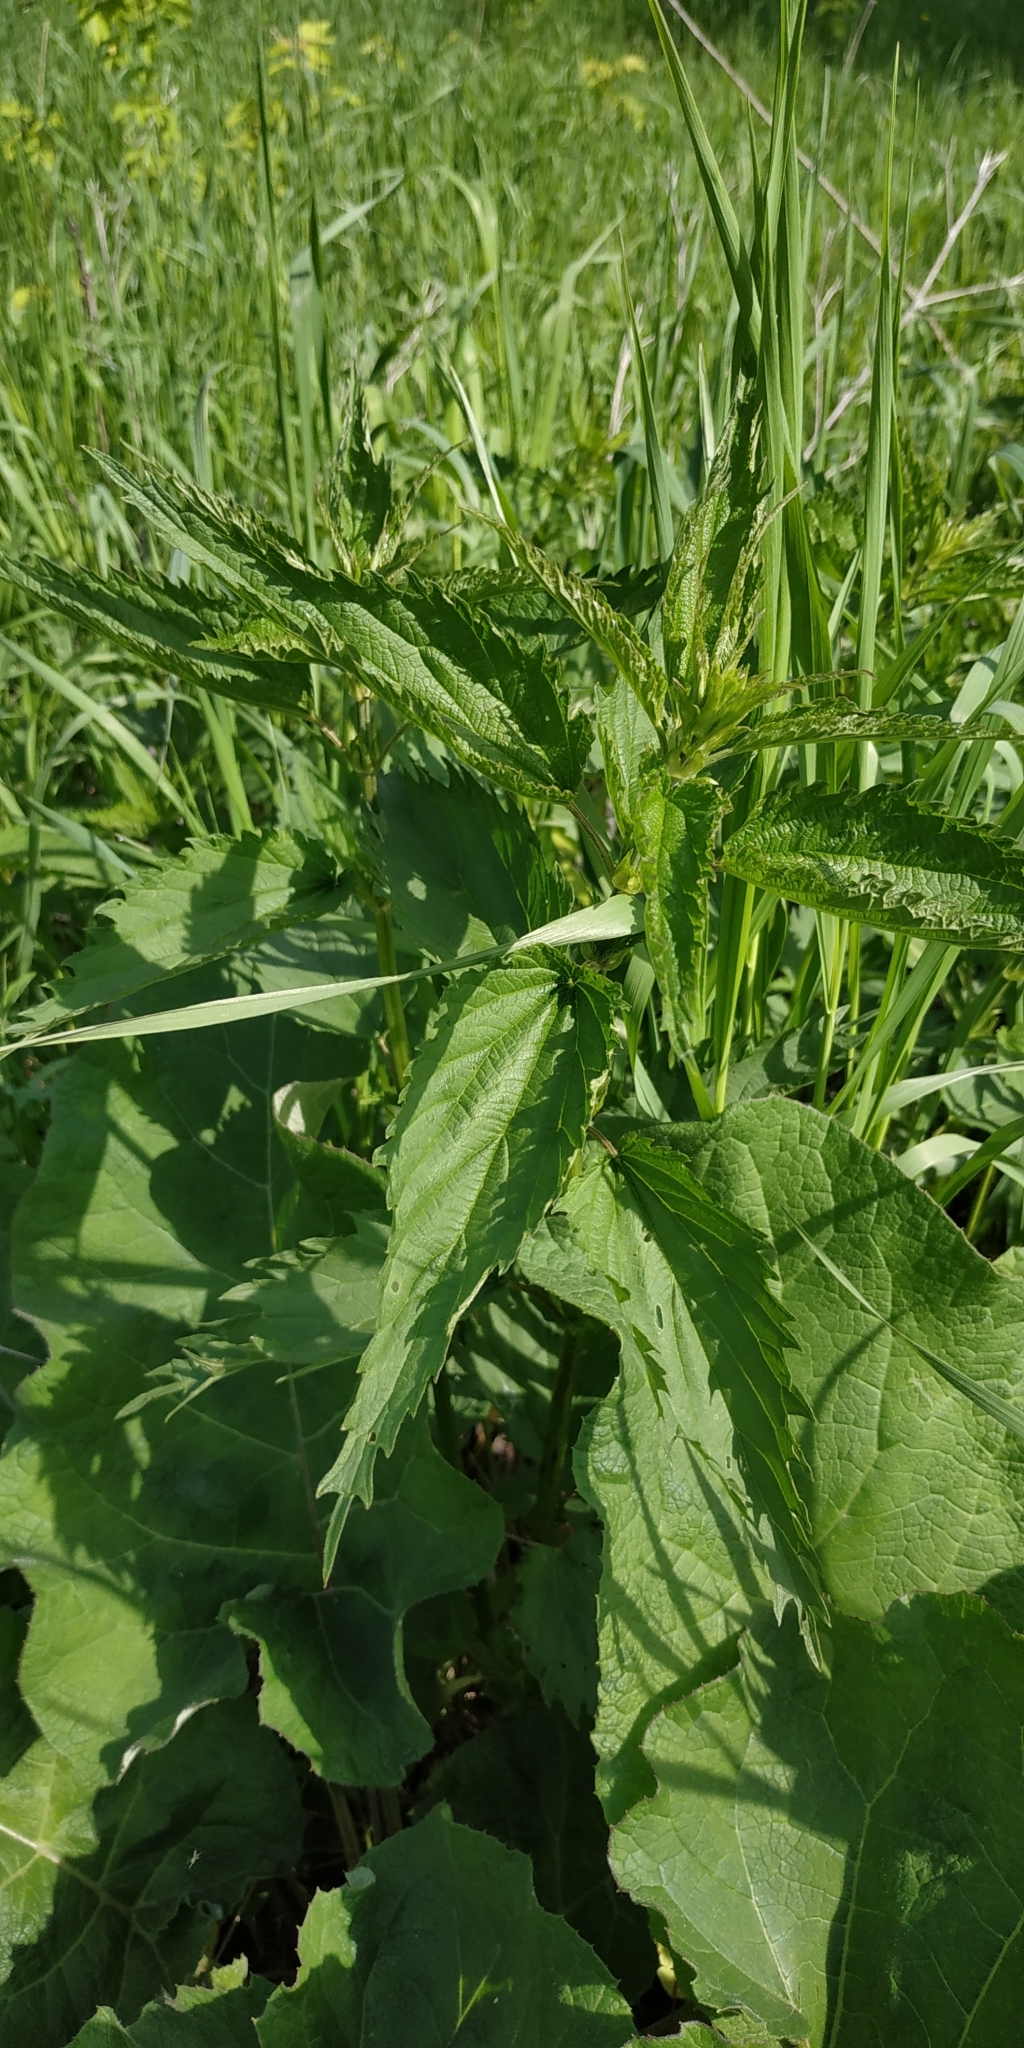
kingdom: Plantae
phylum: Tracheophyta
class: Magnoliopsida
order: Rosales
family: Urticaceae
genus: Urtica
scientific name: Urtica dioica
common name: Common nettle
